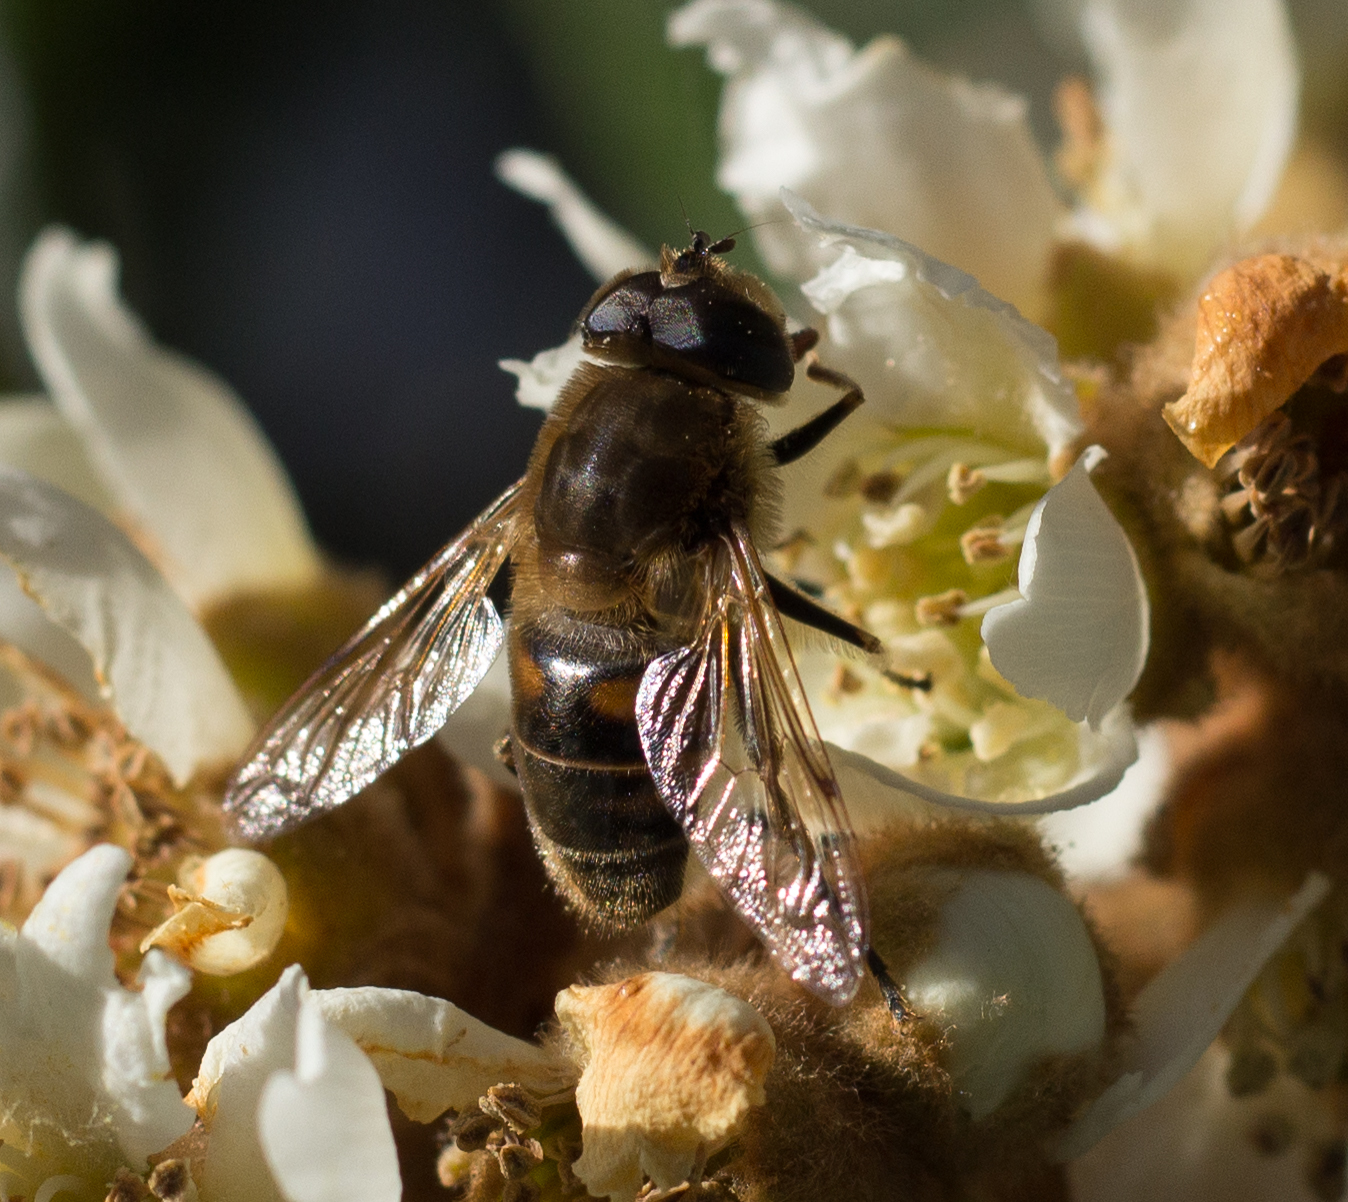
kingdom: Animalia
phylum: Arthropoda
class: Insecta
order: Diptera
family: Syrphidae
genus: Eristalis
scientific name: Eristalis tenax
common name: Drone fly
